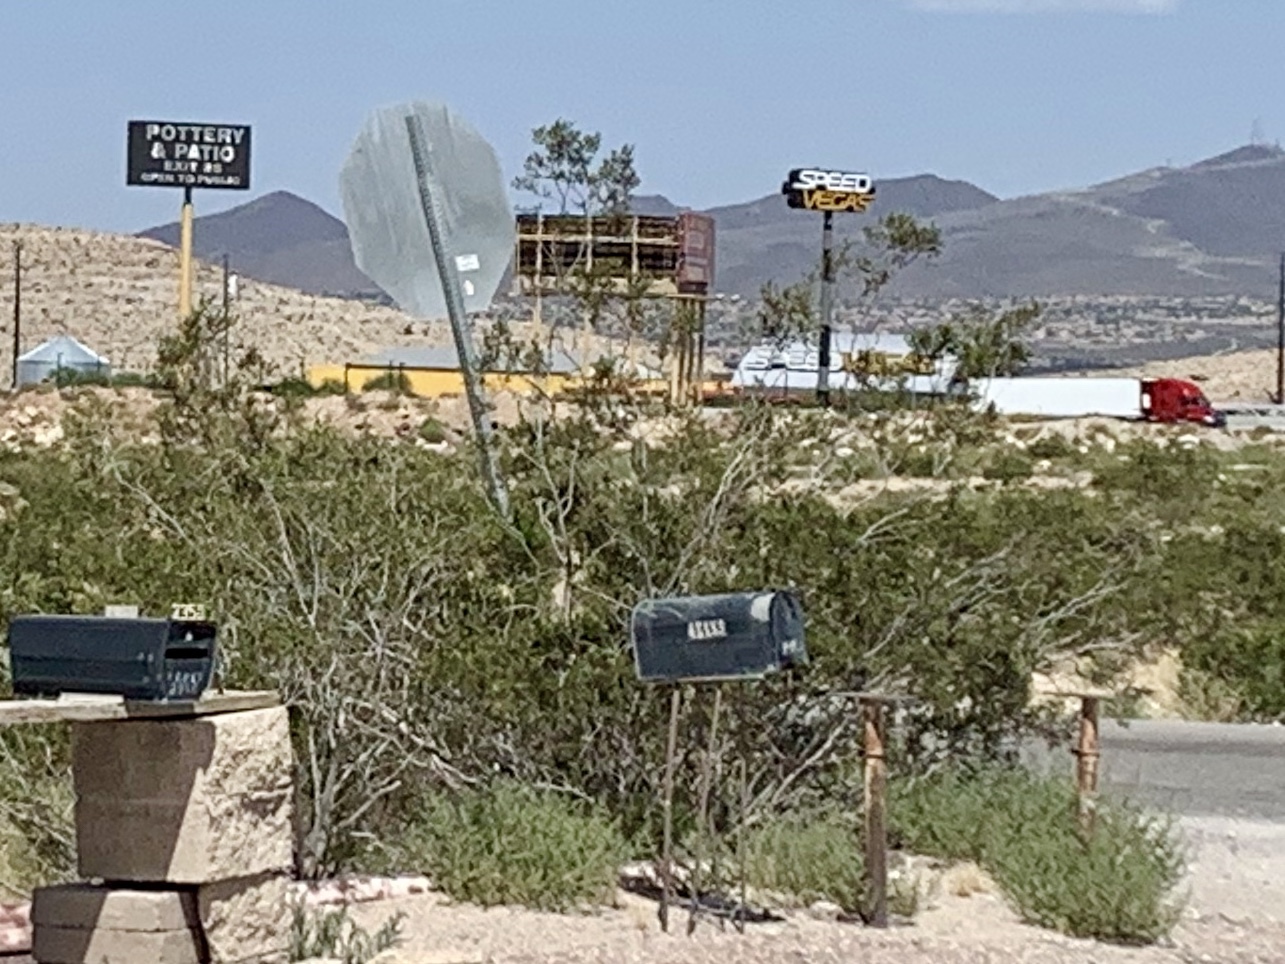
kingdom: Plantae
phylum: Tracheophyta
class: Magnoliopsida
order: Zygophyllales
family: Zygophyllaceae
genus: Larrea
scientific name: Larrea tridentata
